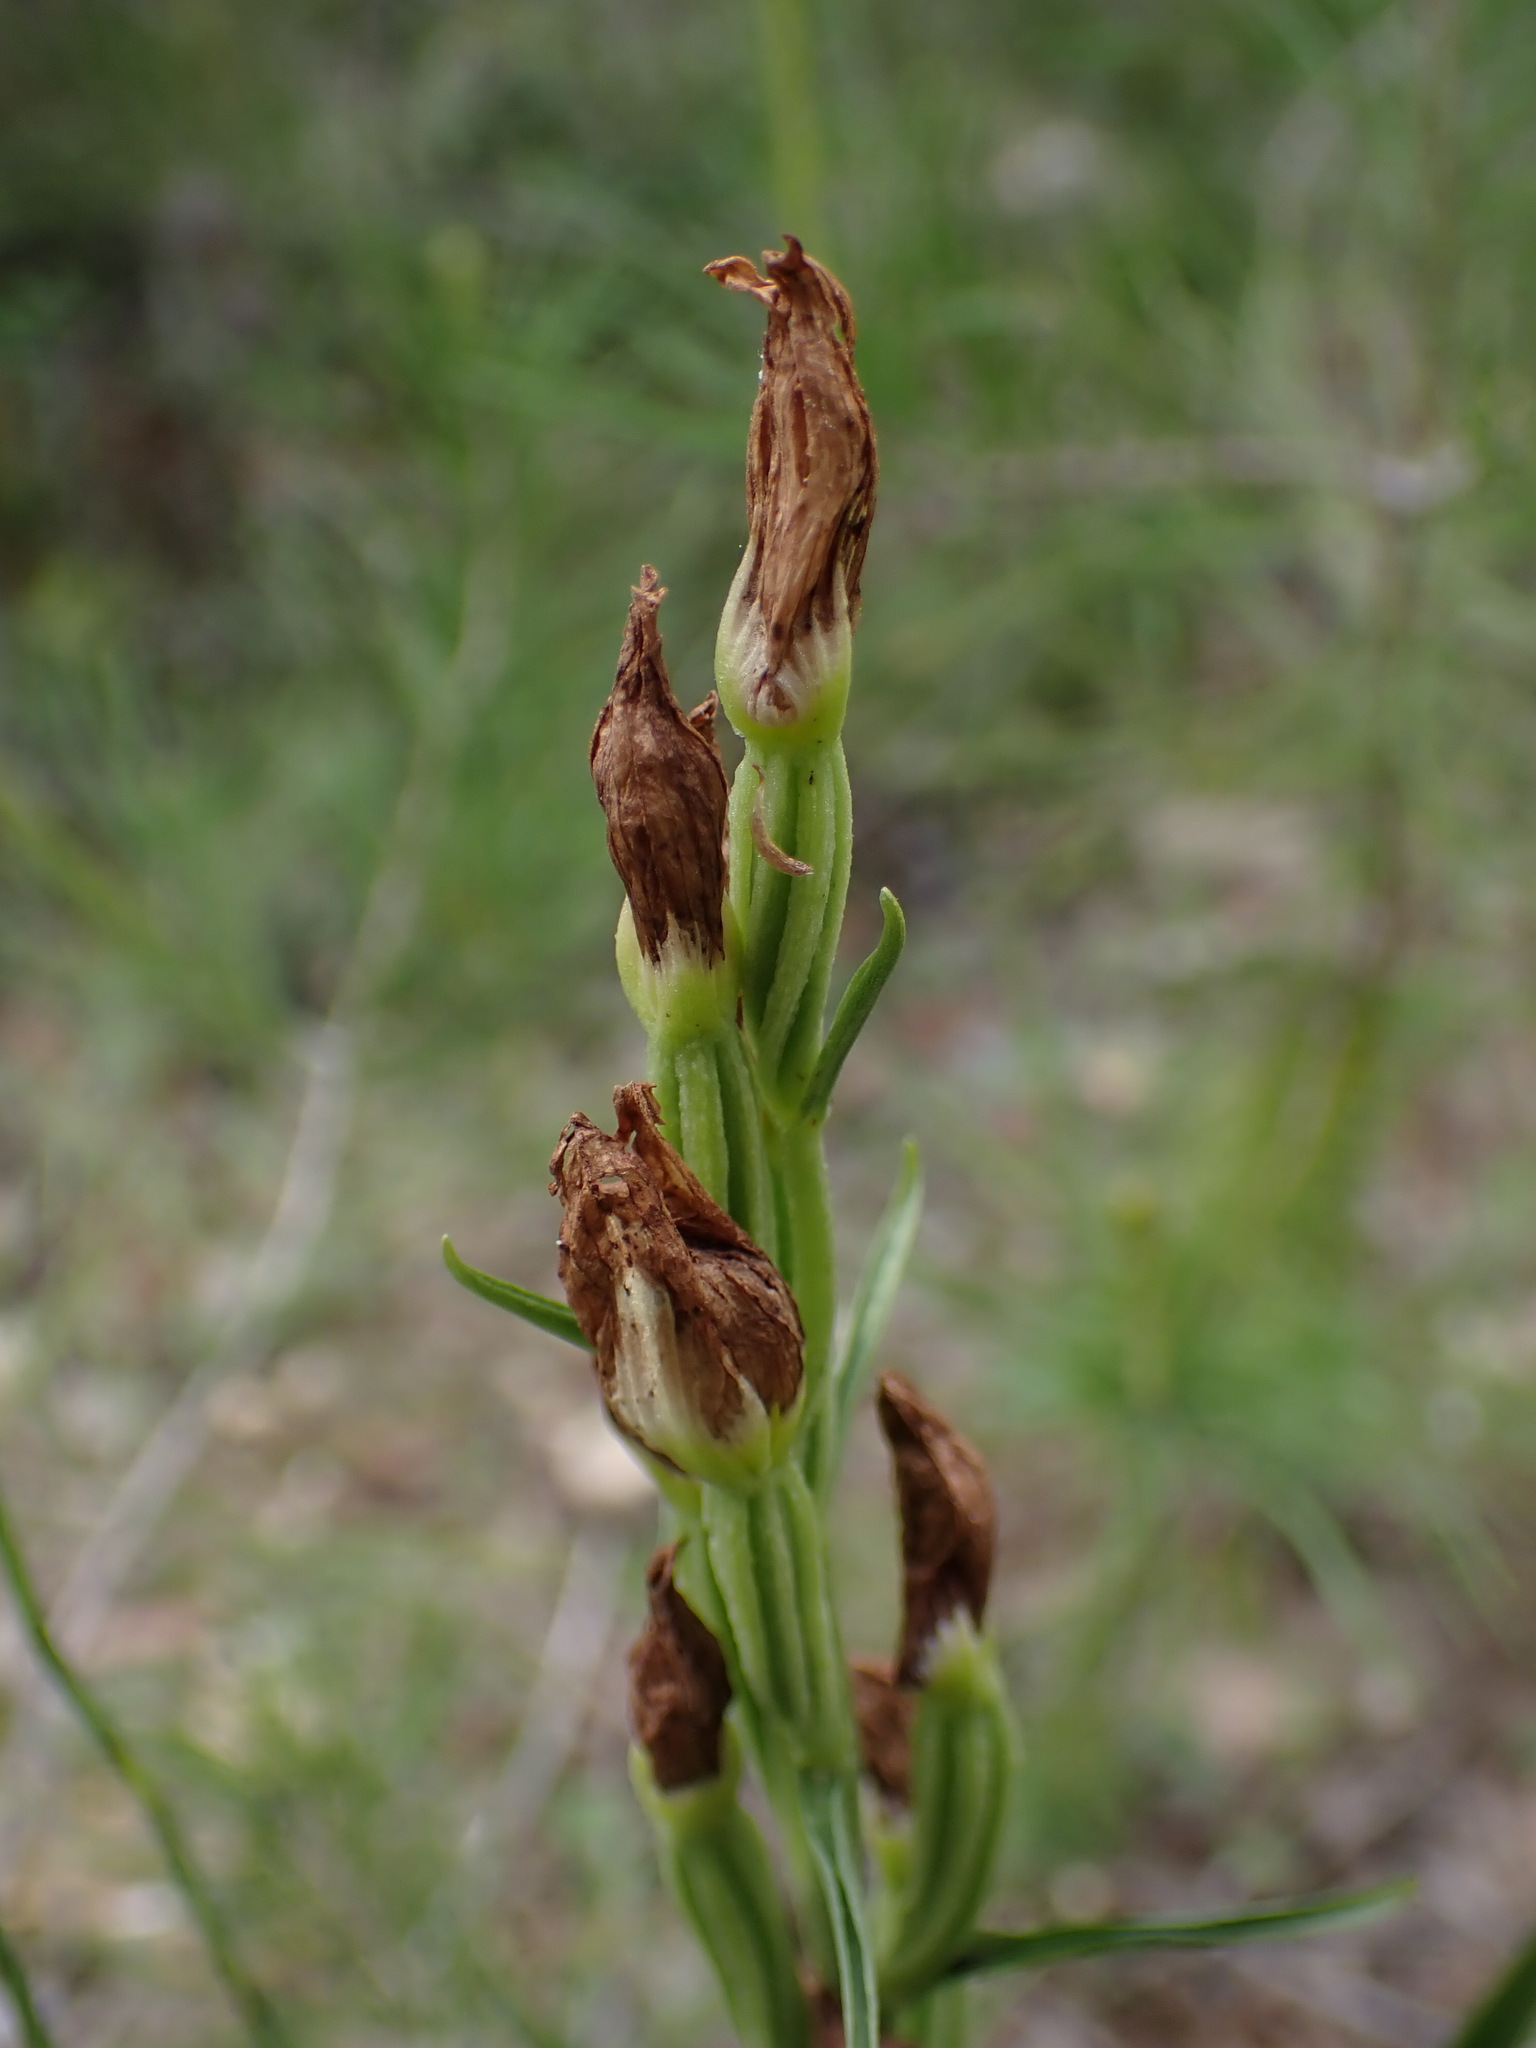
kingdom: Plantae
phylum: Tracheophyta
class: Liliopsida
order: Asparagales
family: Orchidaceae
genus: Cephalanthera
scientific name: Cephalanthera damasonium
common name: White helleborine
